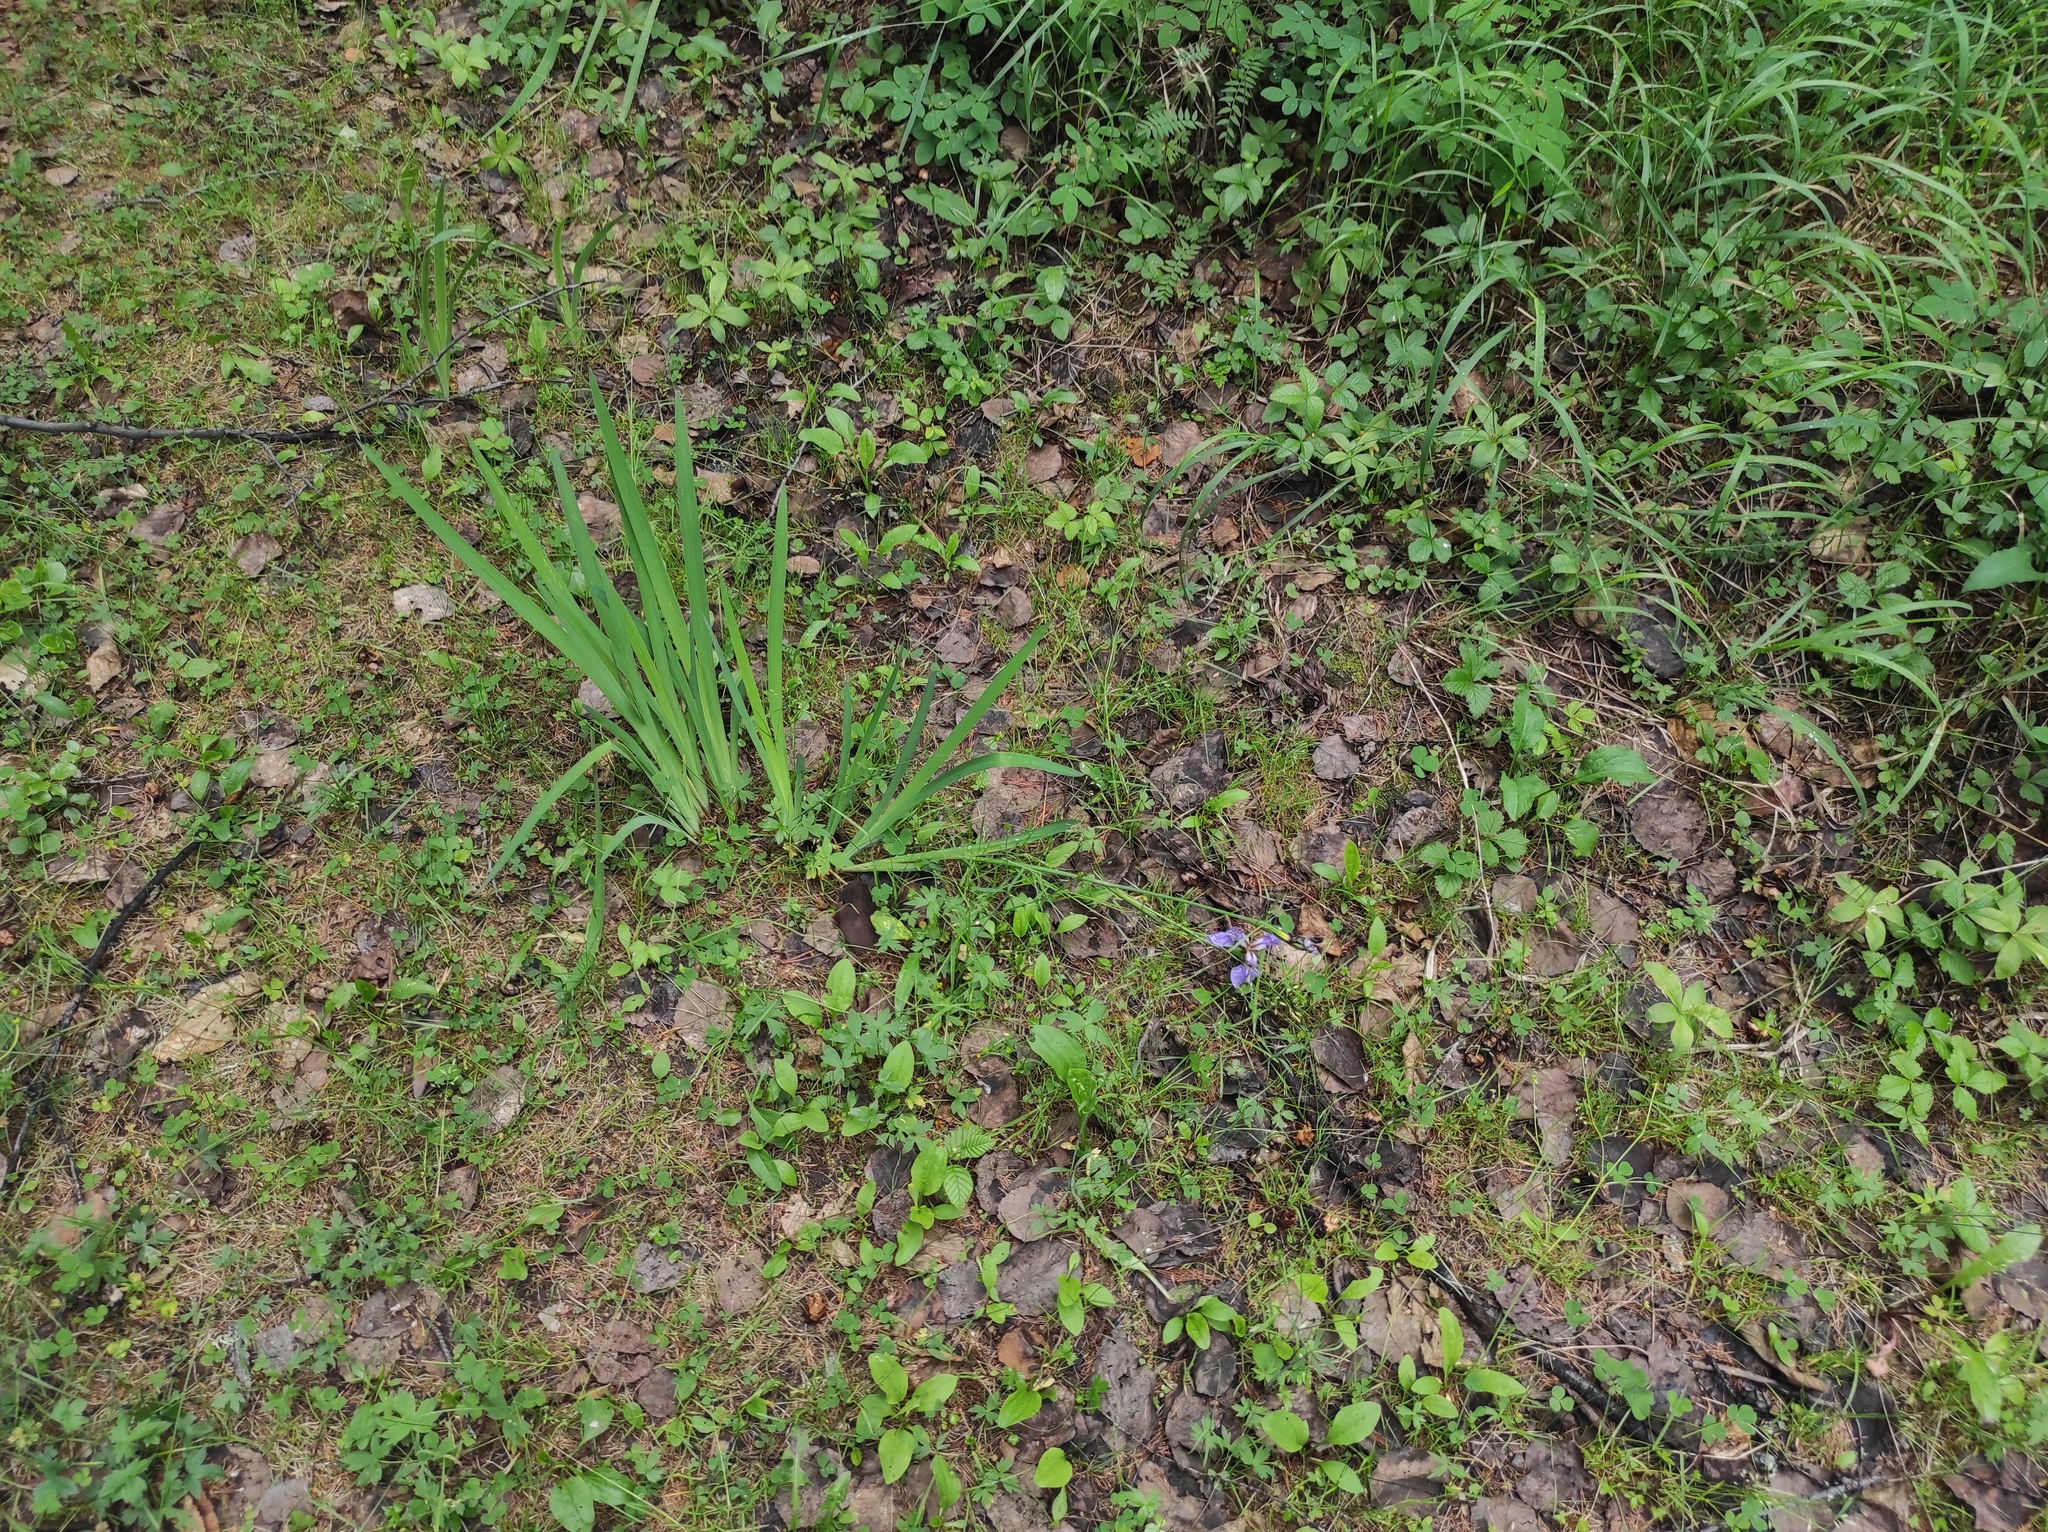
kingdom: Plantae
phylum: Tracheophyta
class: Liliopsida
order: Asparagales
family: Iridaceae
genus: Iris
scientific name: Iris setosa
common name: Arctic blue flag
